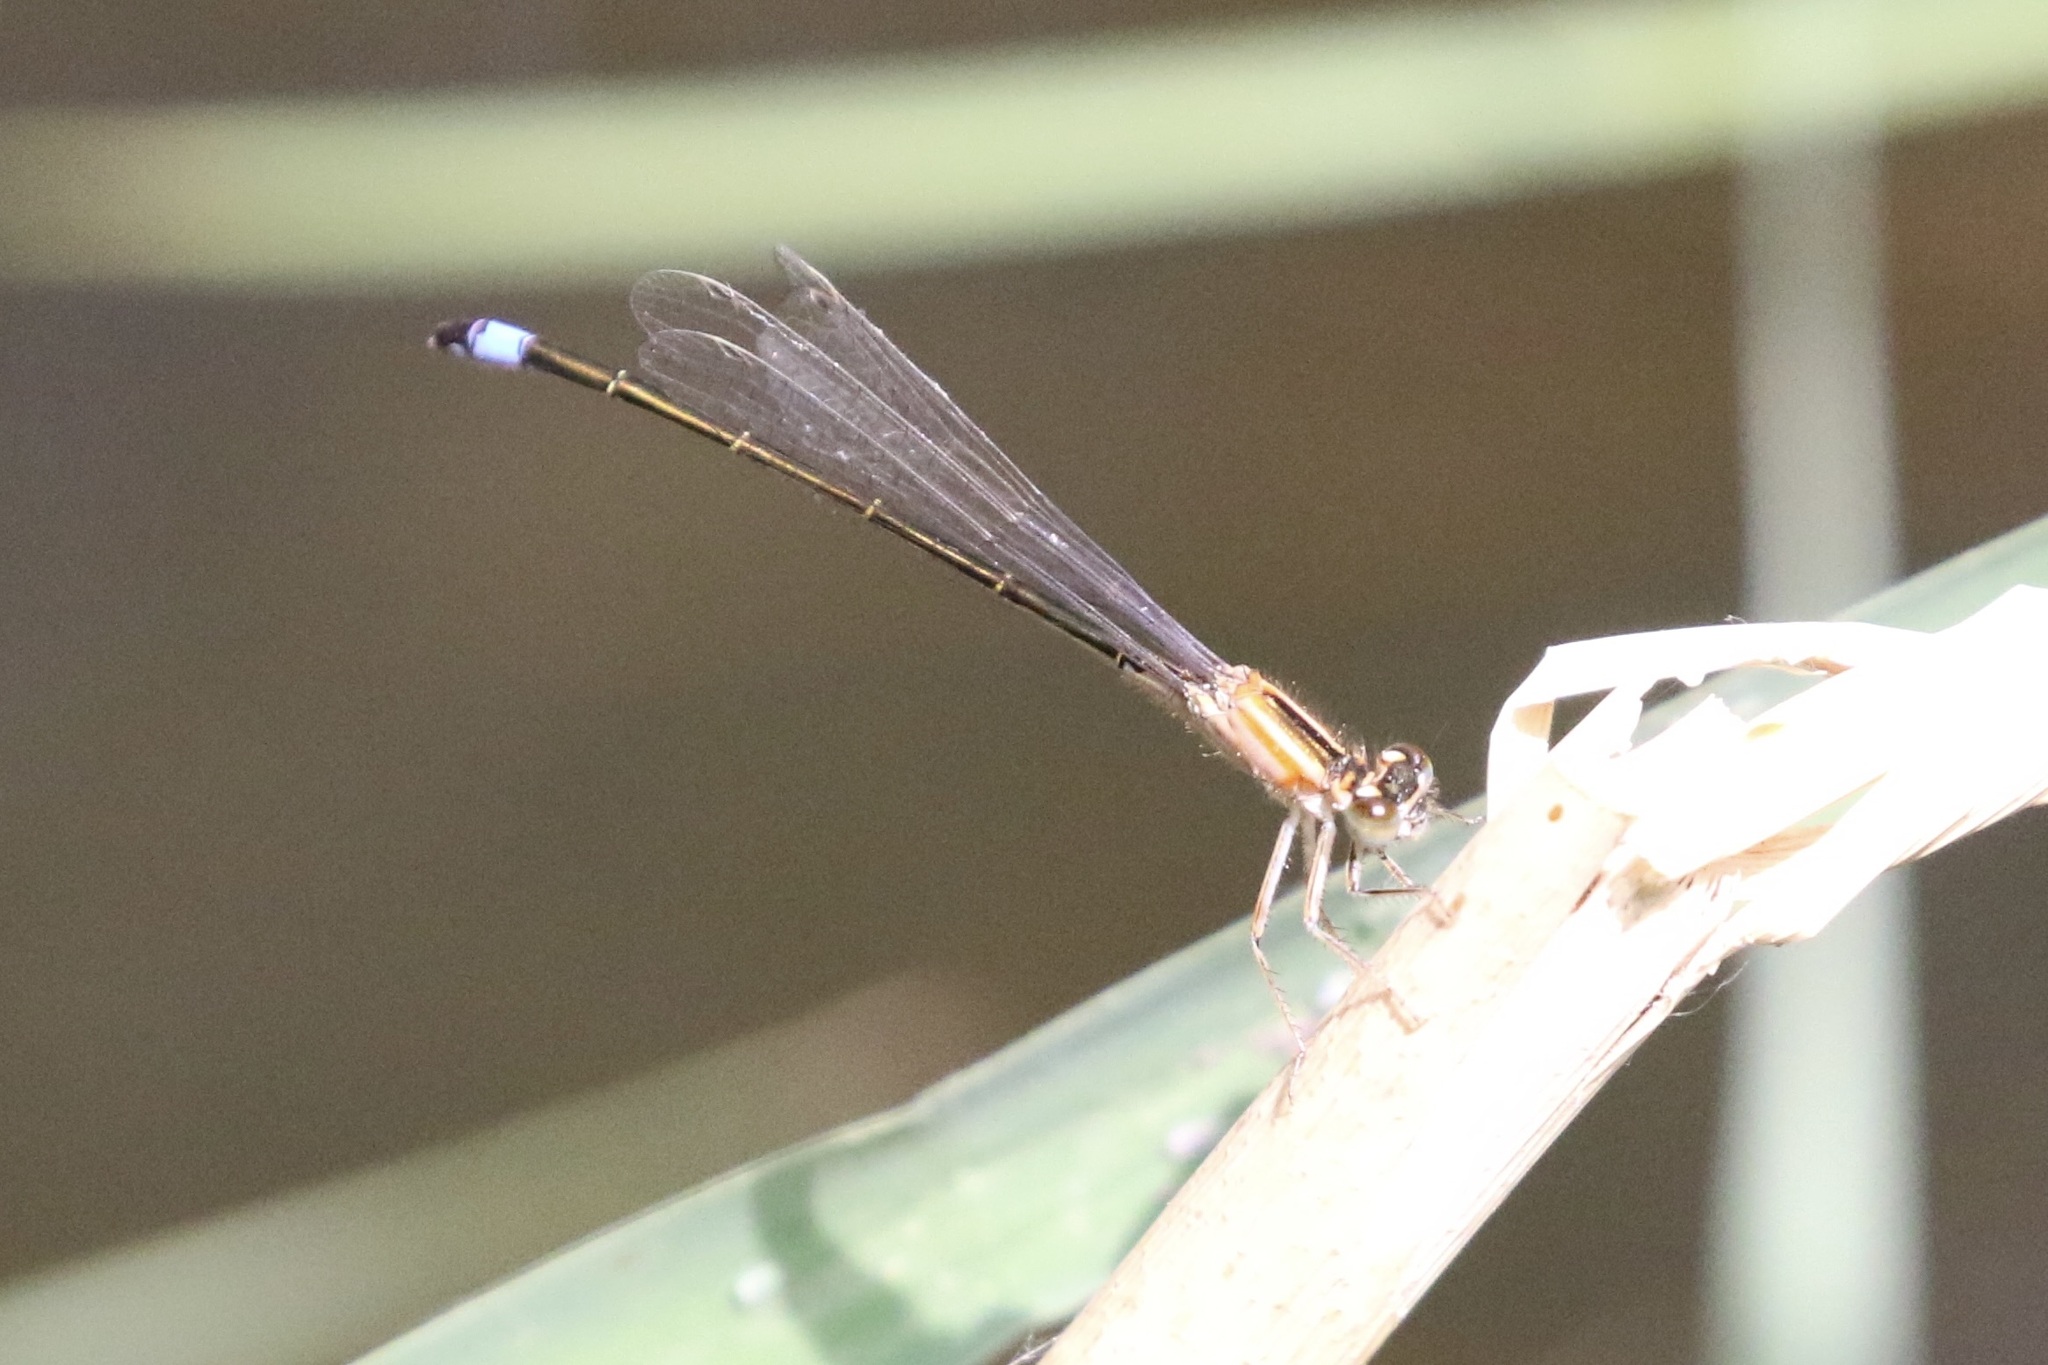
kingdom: Animalia
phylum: Arthropoda
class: Insecta
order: Odonata
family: Coenagrionidae
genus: Ischnura
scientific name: Ischnura elegans
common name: Blue-tailed damselfly
